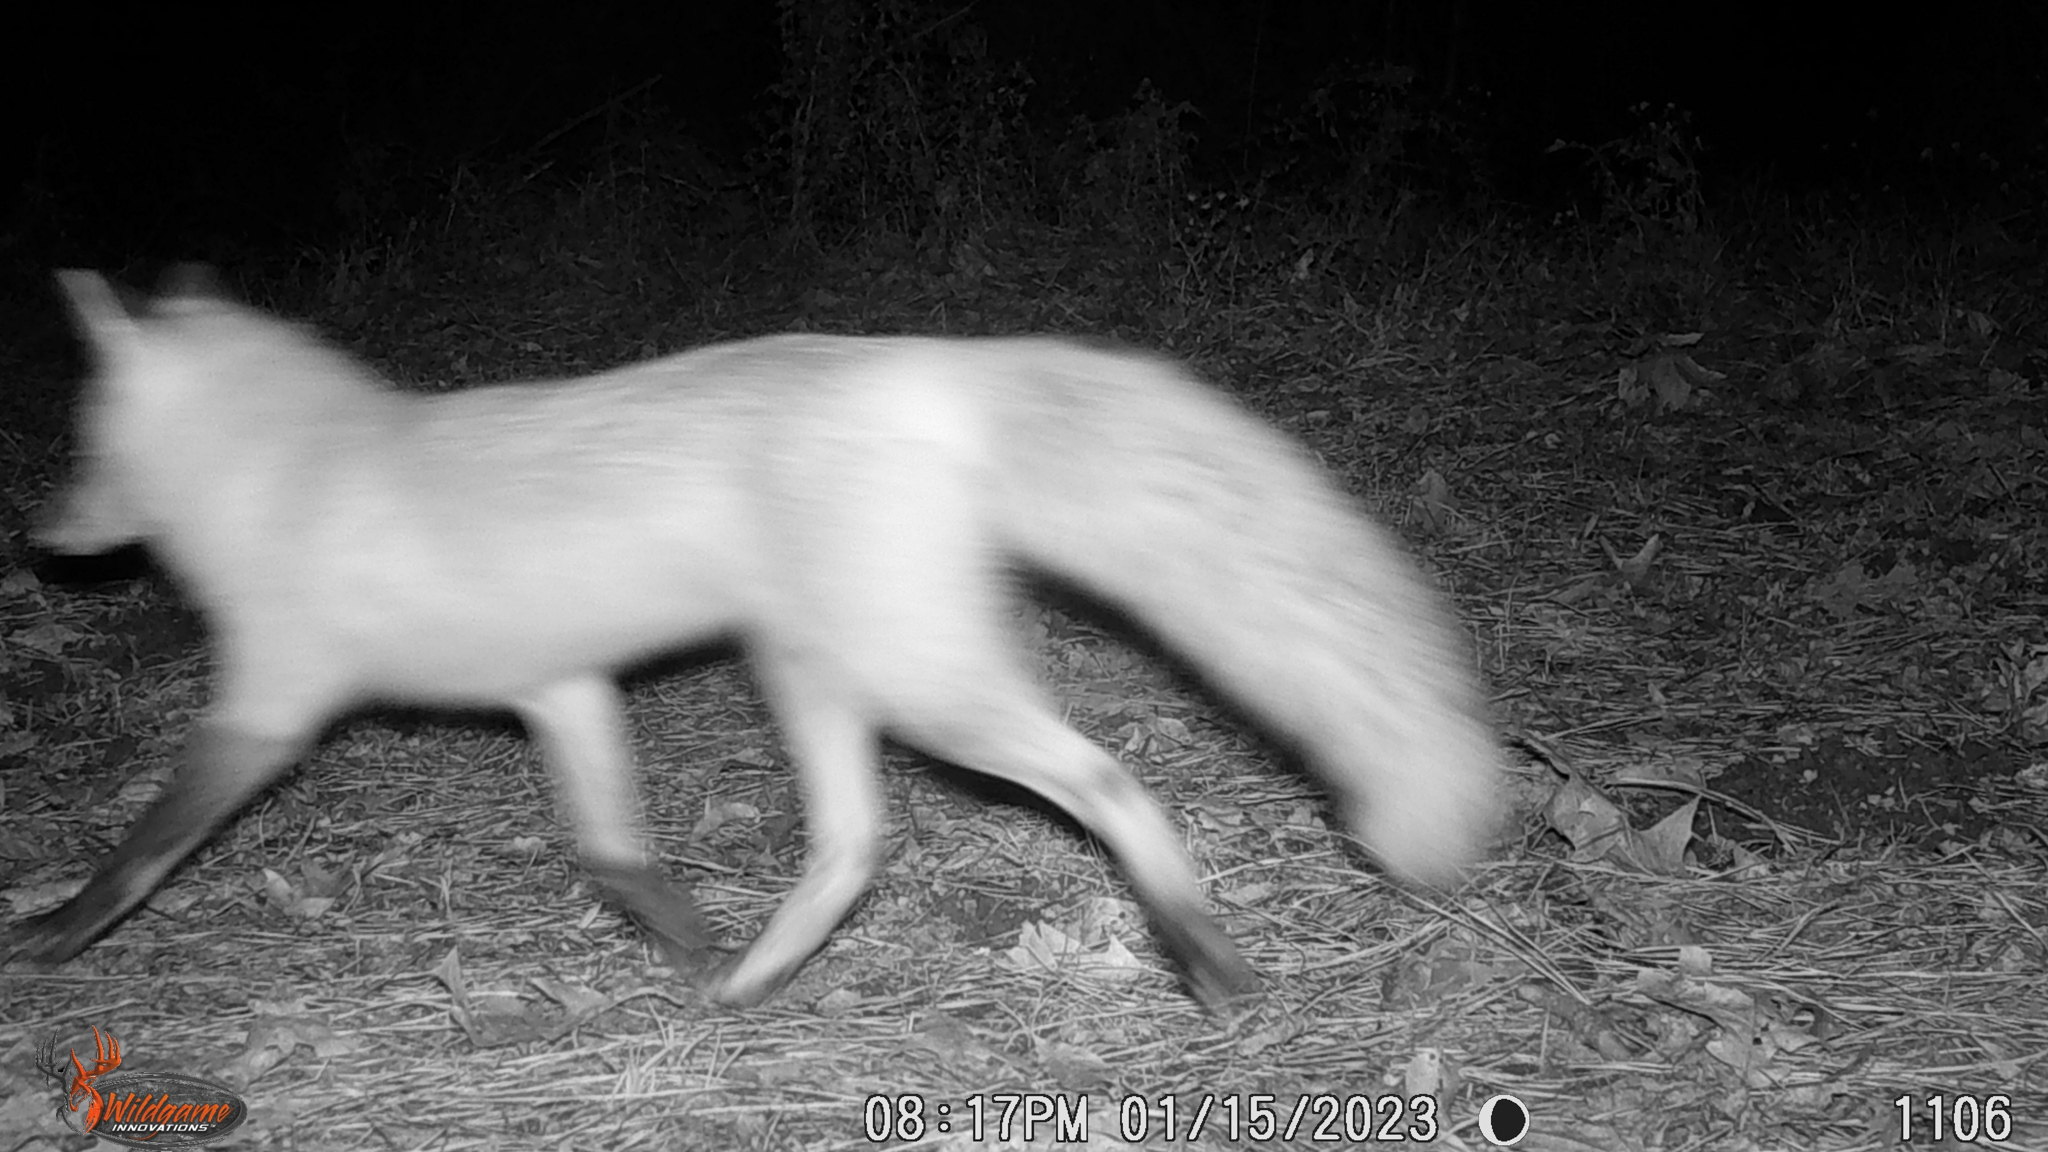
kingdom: Animalia
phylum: Chordata
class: Mammalia
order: Carnivora
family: Canidae
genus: Vulpes
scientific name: Vulpes vulpes
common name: Red fox
